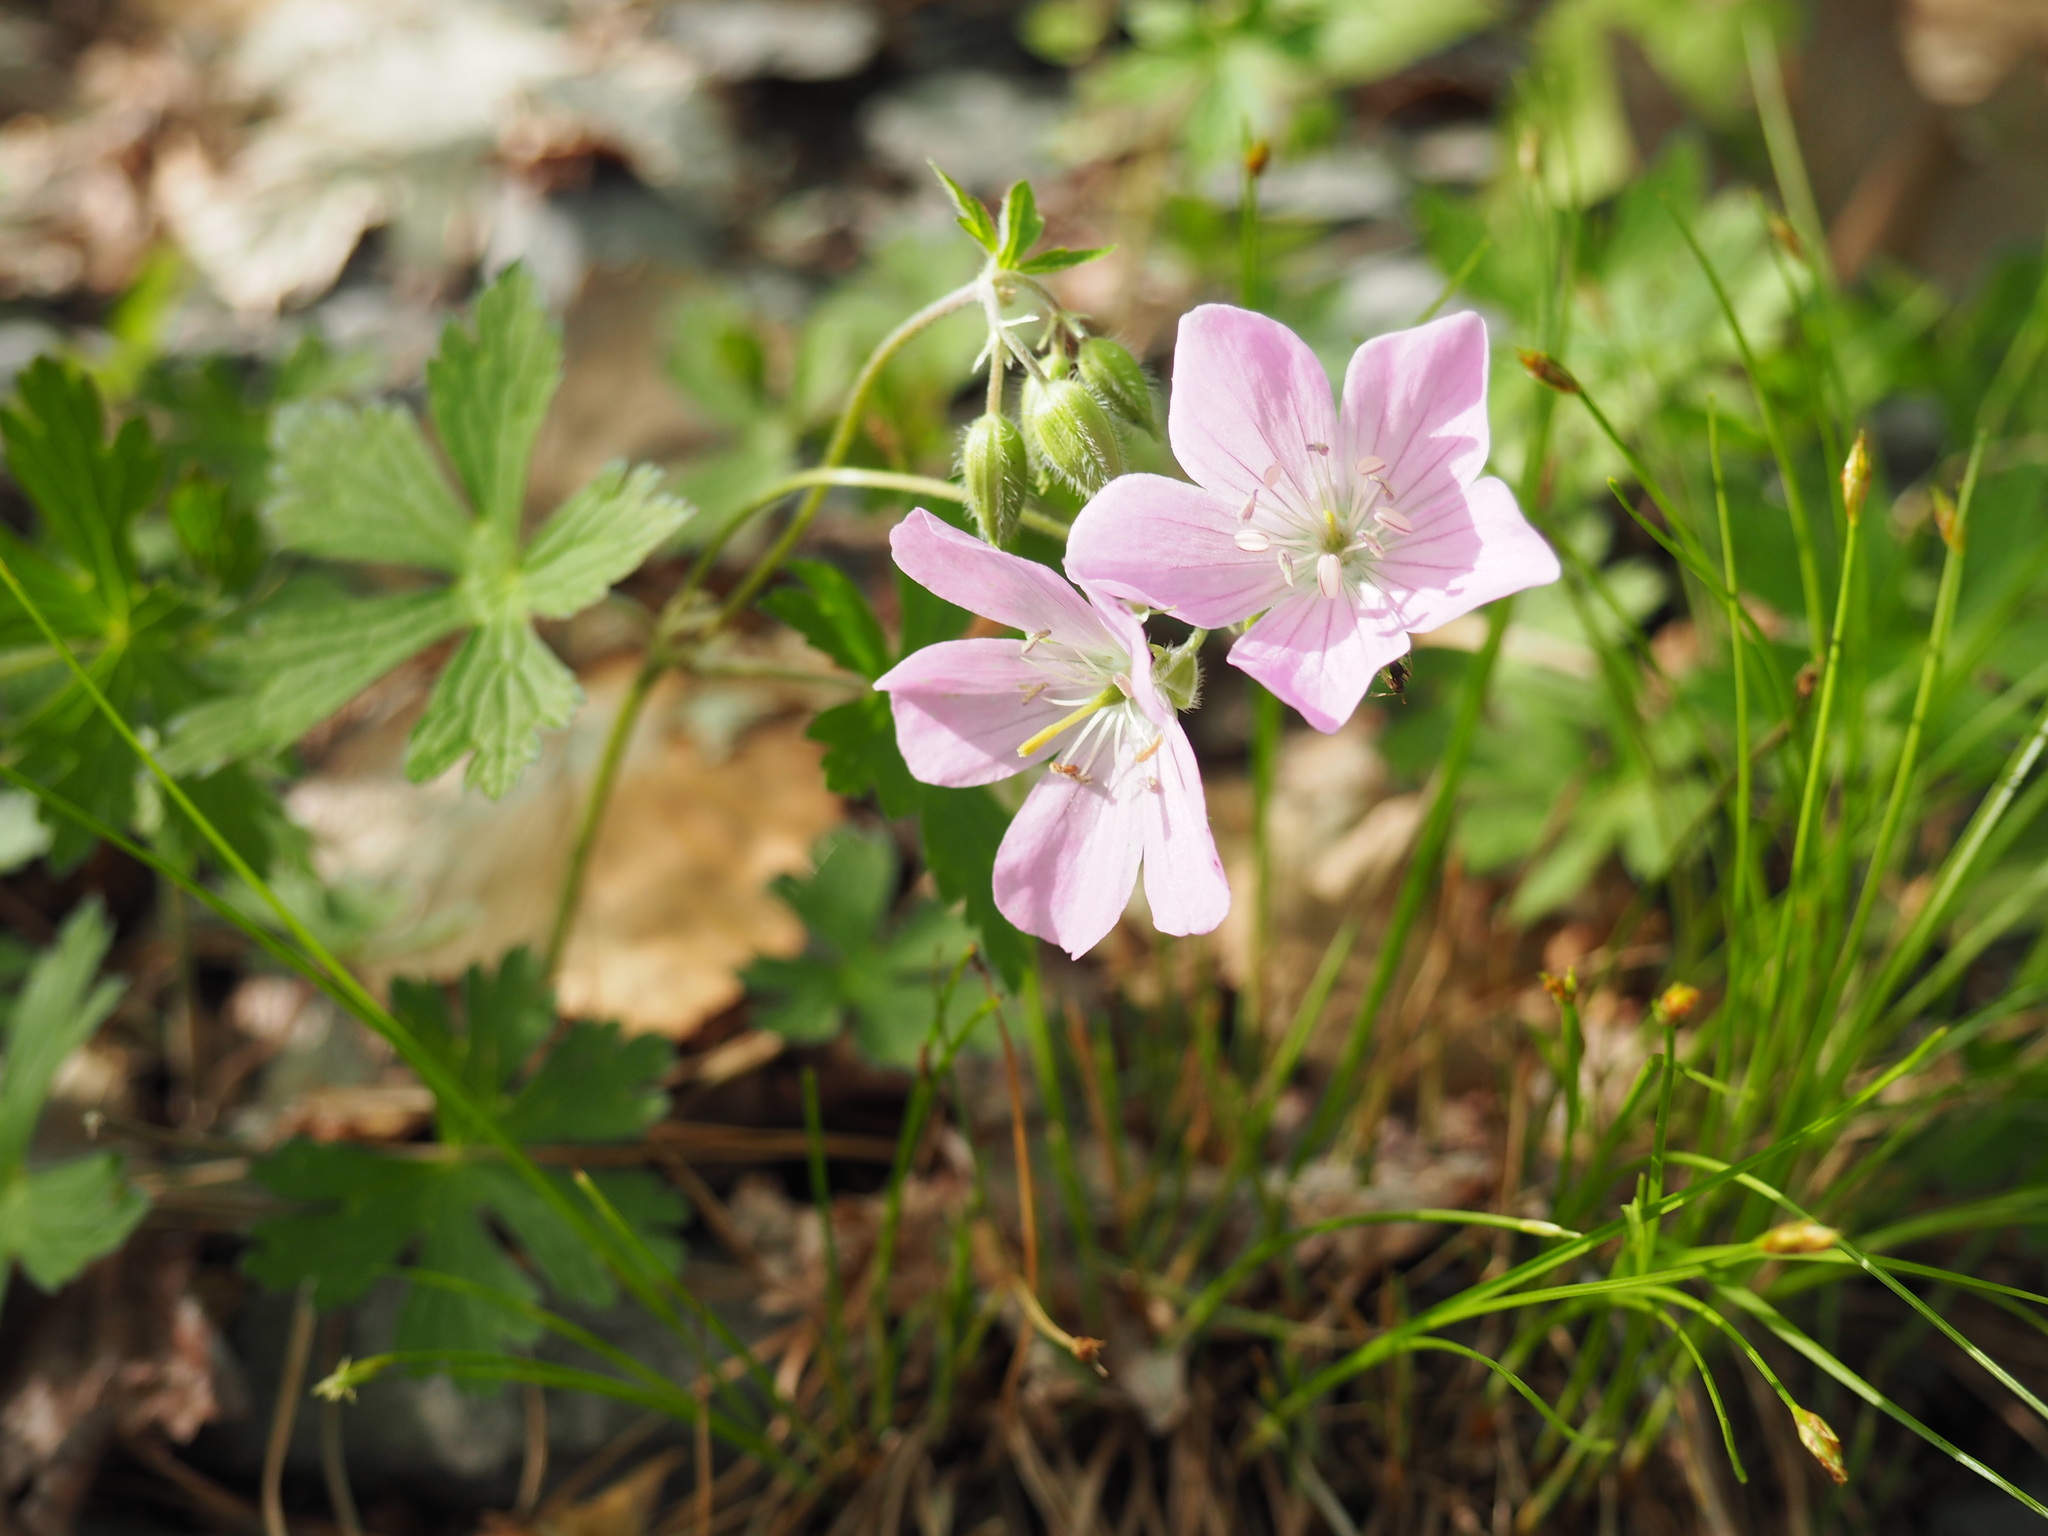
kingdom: Plantae
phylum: Tracheophyta
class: Magnoliopsida
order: Geraniales
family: Geraniaceae
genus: Geranium
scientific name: Geranium maculatum
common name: Spotted geranium
